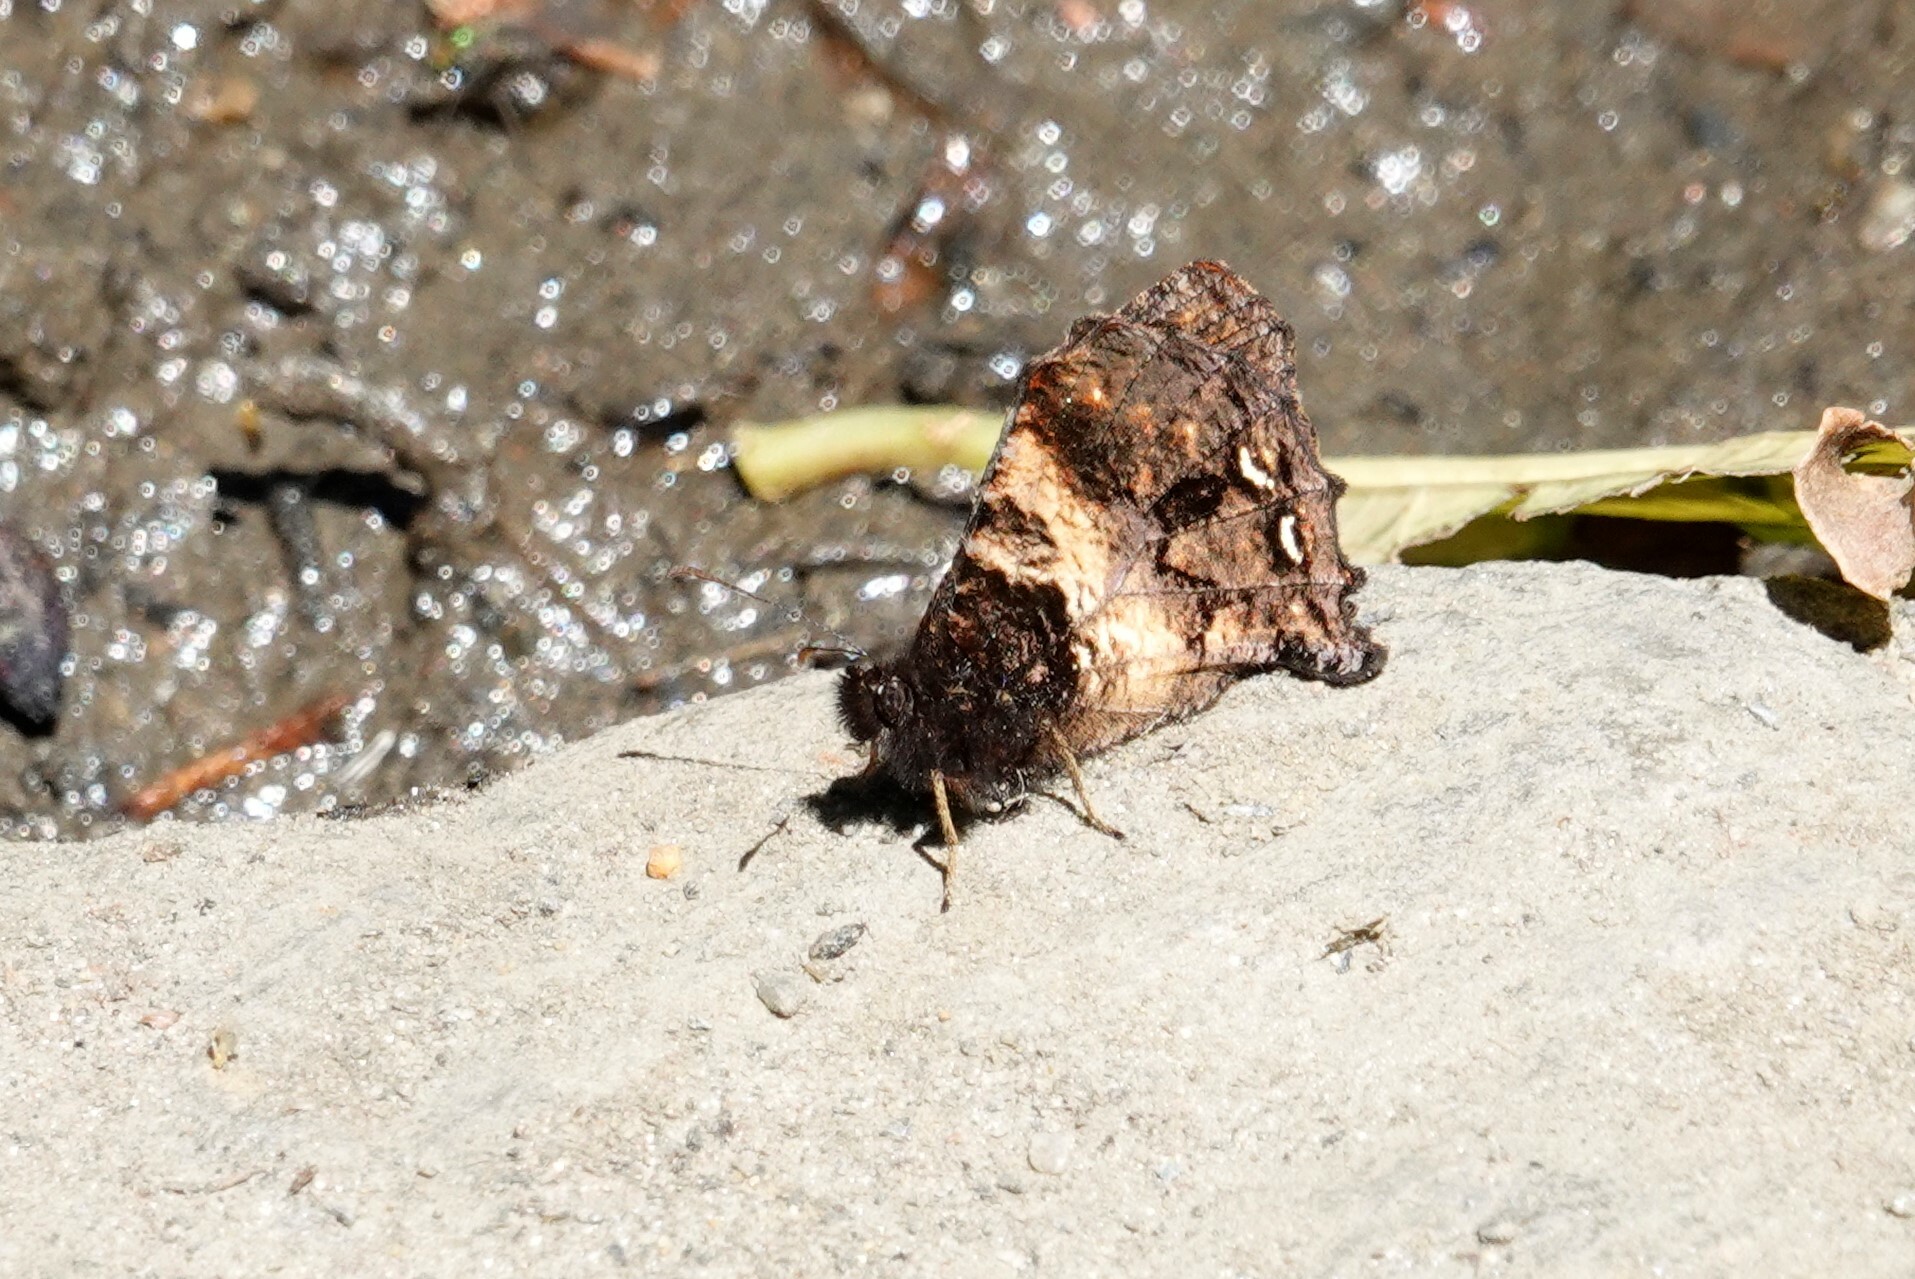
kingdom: Animalia
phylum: Arthropoda
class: Insecta
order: Lepidoptera
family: Nymphalidae
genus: Steroma
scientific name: Steroma polyxo
